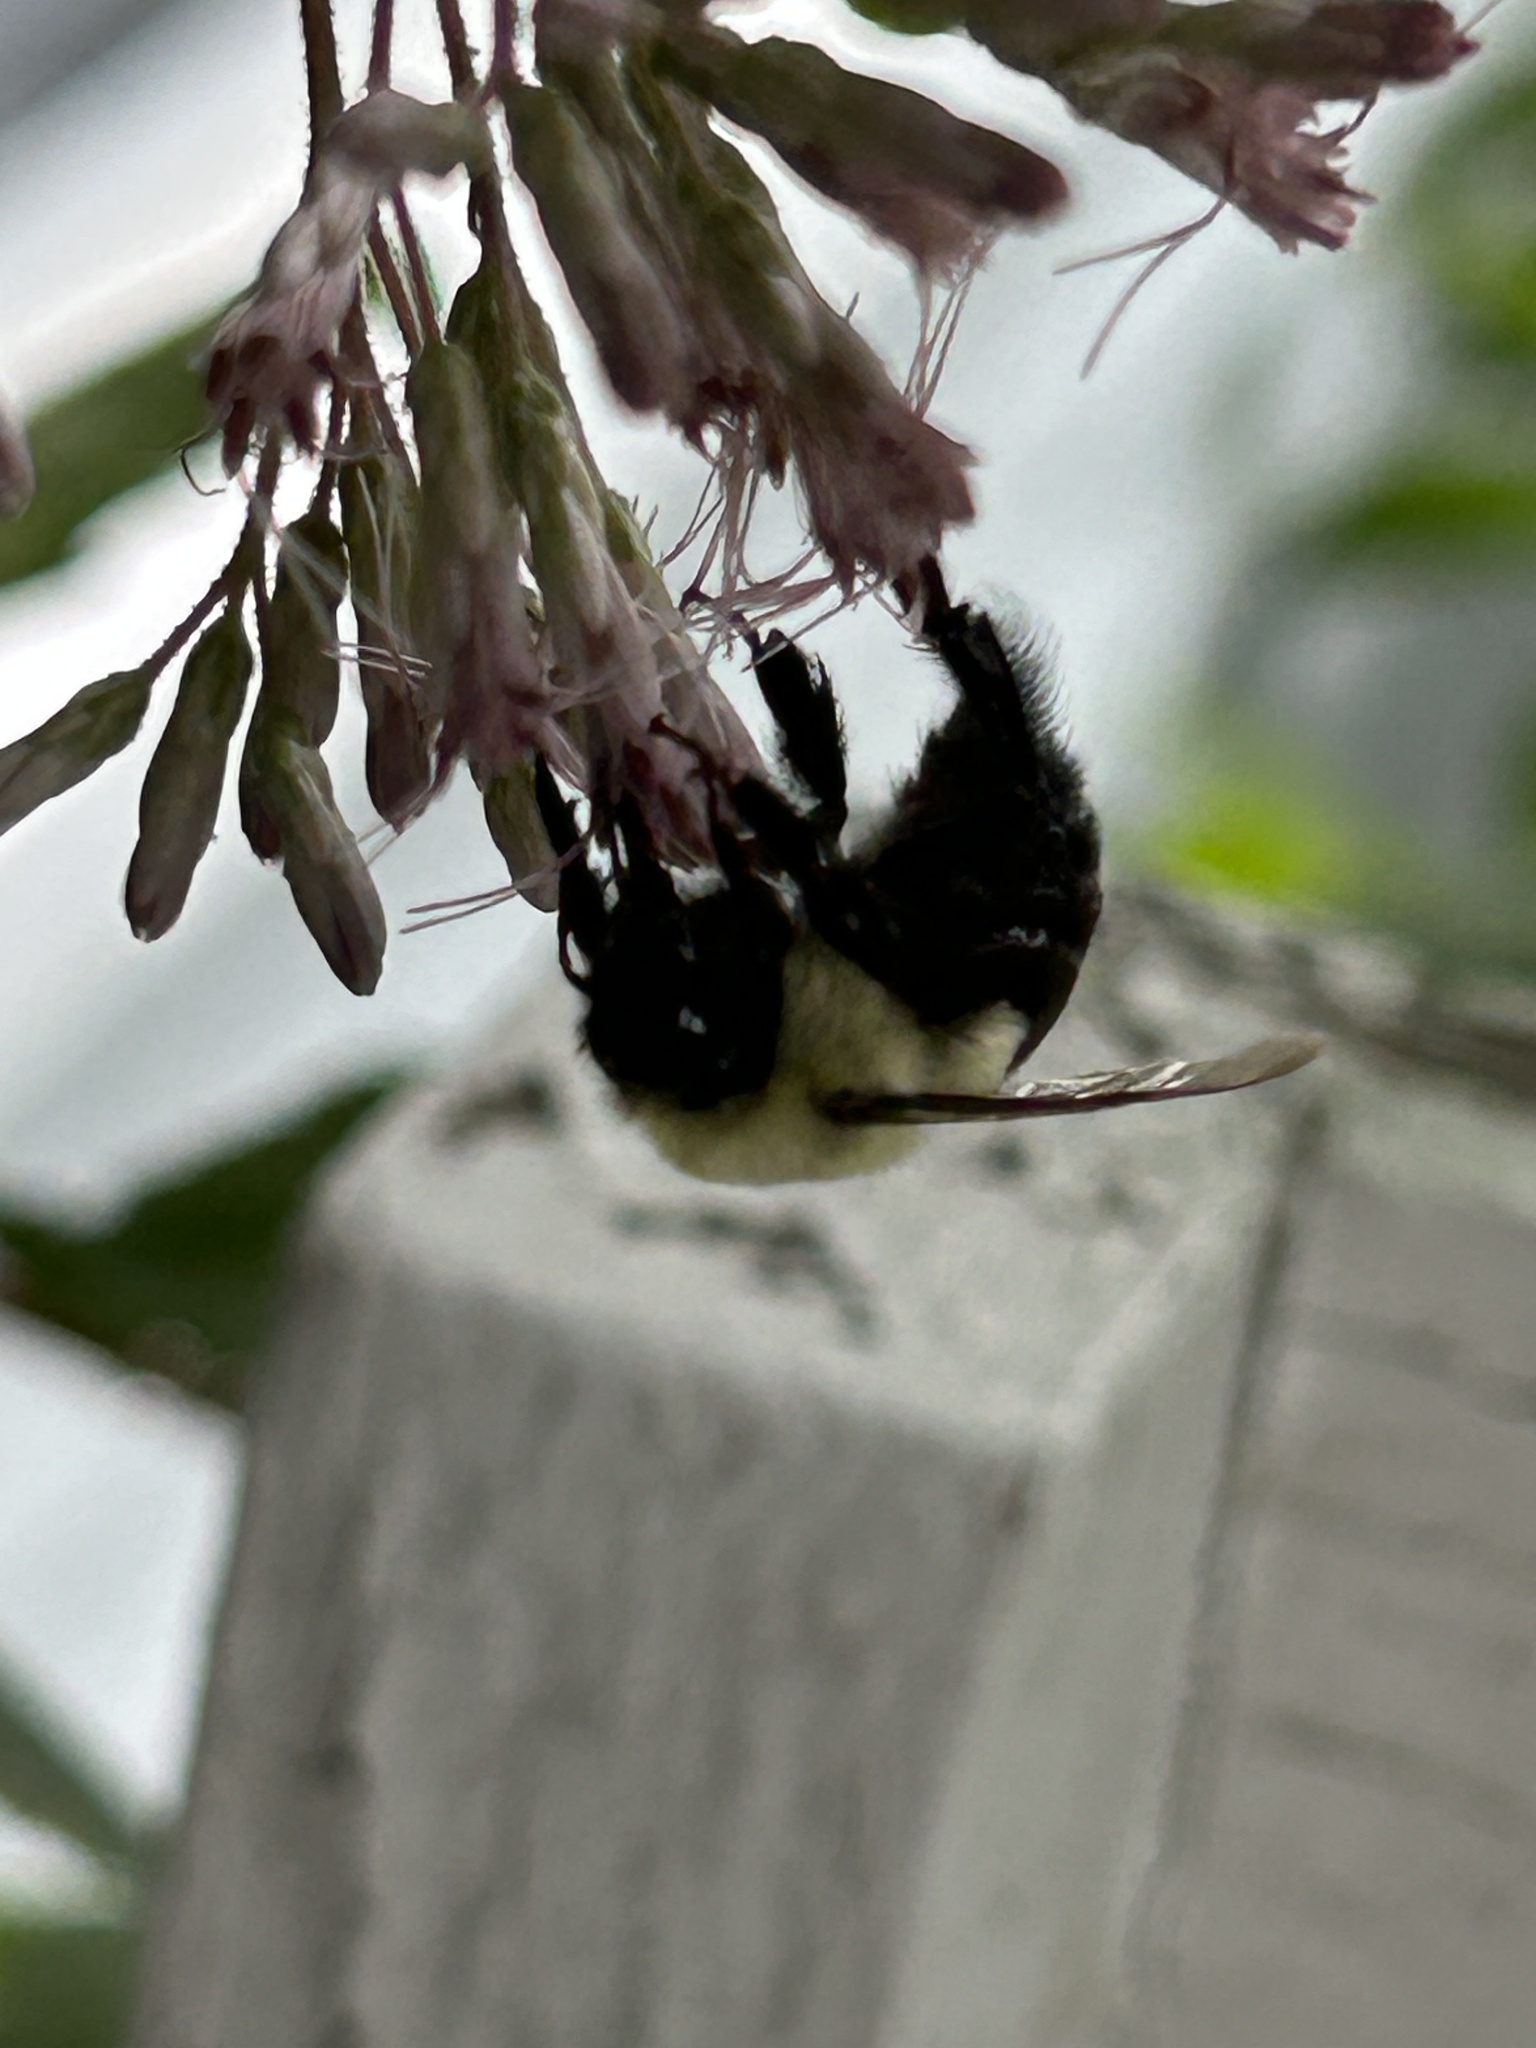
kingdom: Animalia
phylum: Arthropoda
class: Insecta
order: Hymenoptera
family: Apidae
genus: Bombus
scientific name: Bombus impatiens
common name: Common eastern bumble bee
